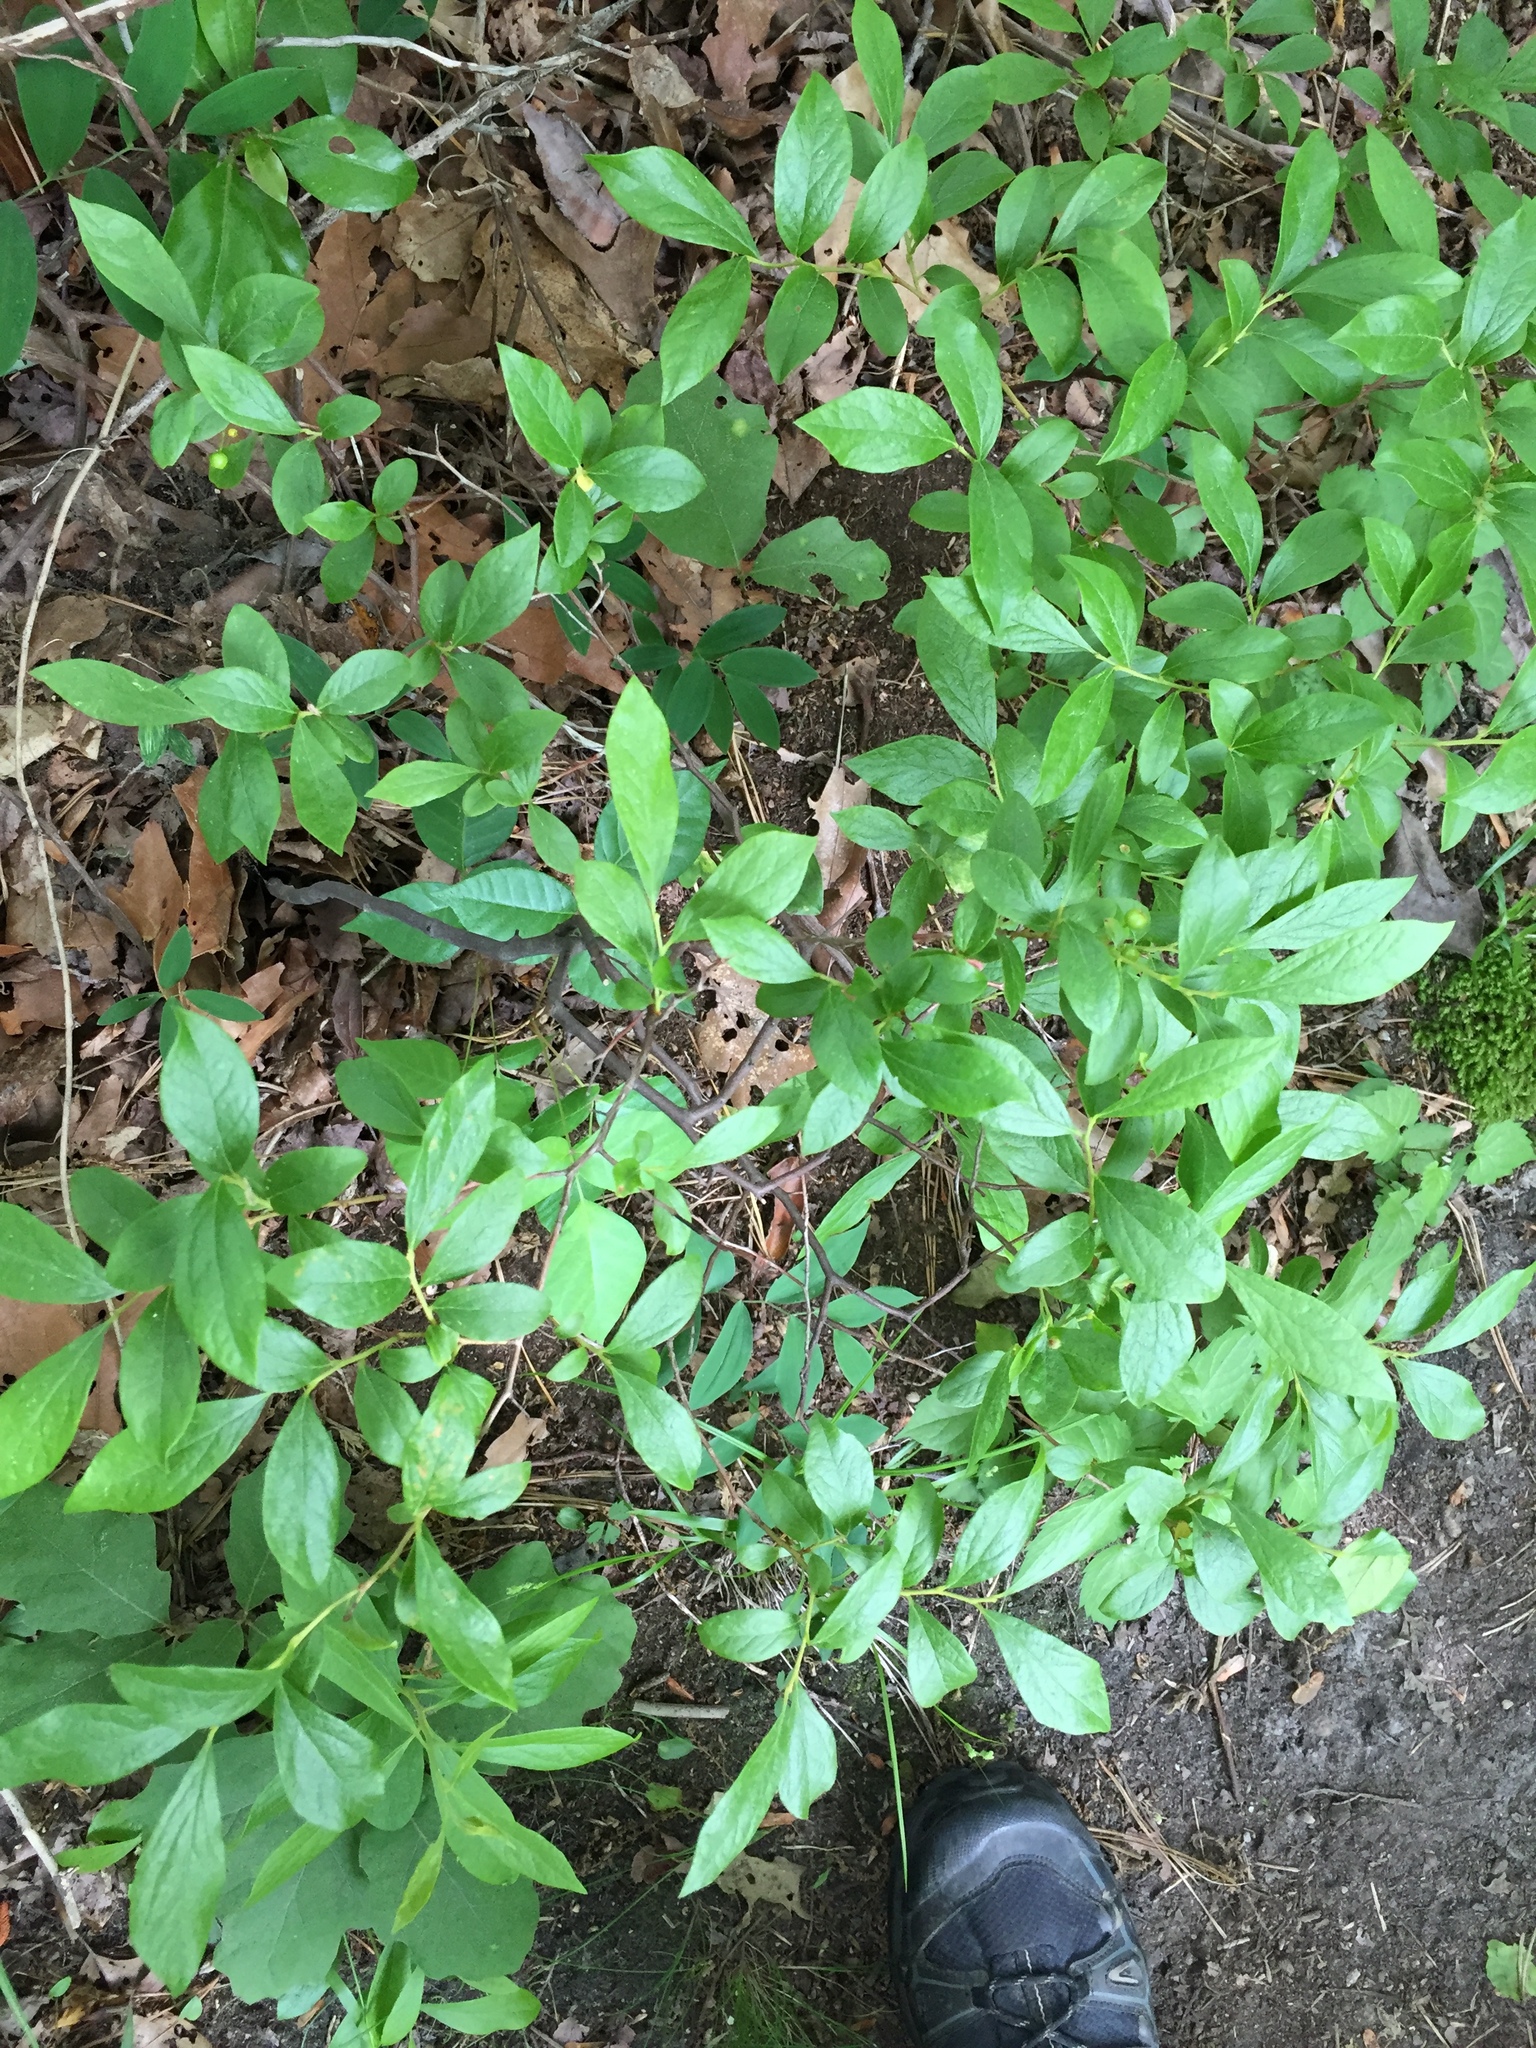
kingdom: Plantae
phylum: Tracheophyta
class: Magnoliopsida
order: Ericales
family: Ericaceae
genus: Gaylussacia
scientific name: Gaylussacia baccata
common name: Black huckleberry
